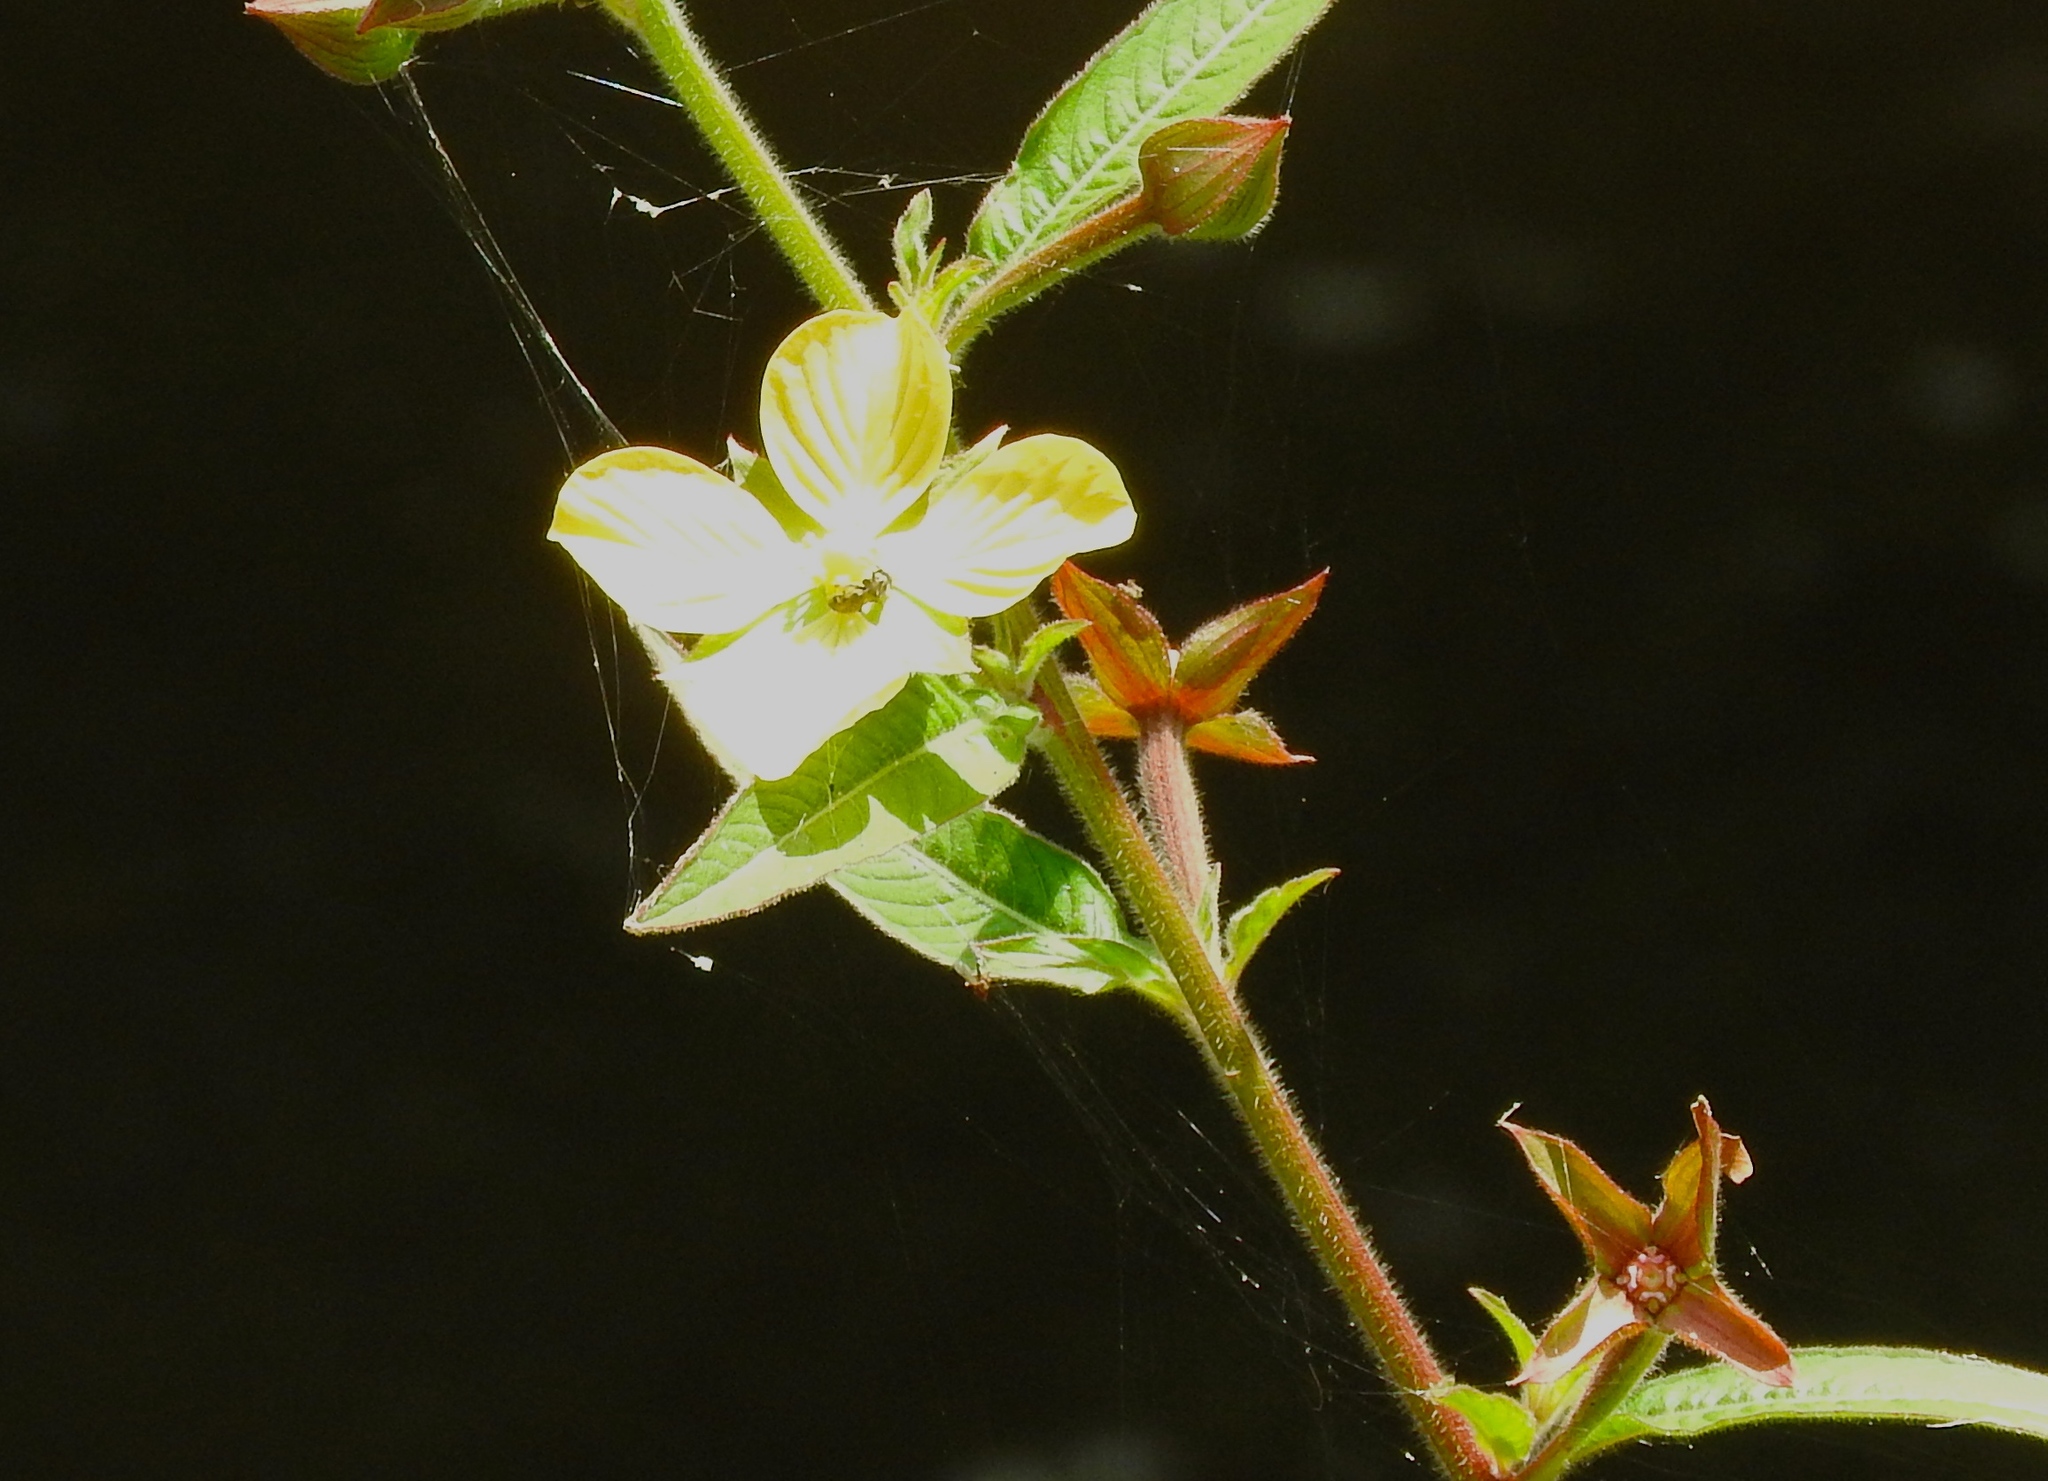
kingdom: Plantae
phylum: Tracheophyta
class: Magnoliopsida
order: Myrtales
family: Onagraceae
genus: Ludwigia
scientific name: Ludwigia octovalvis
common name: Water-primrose
